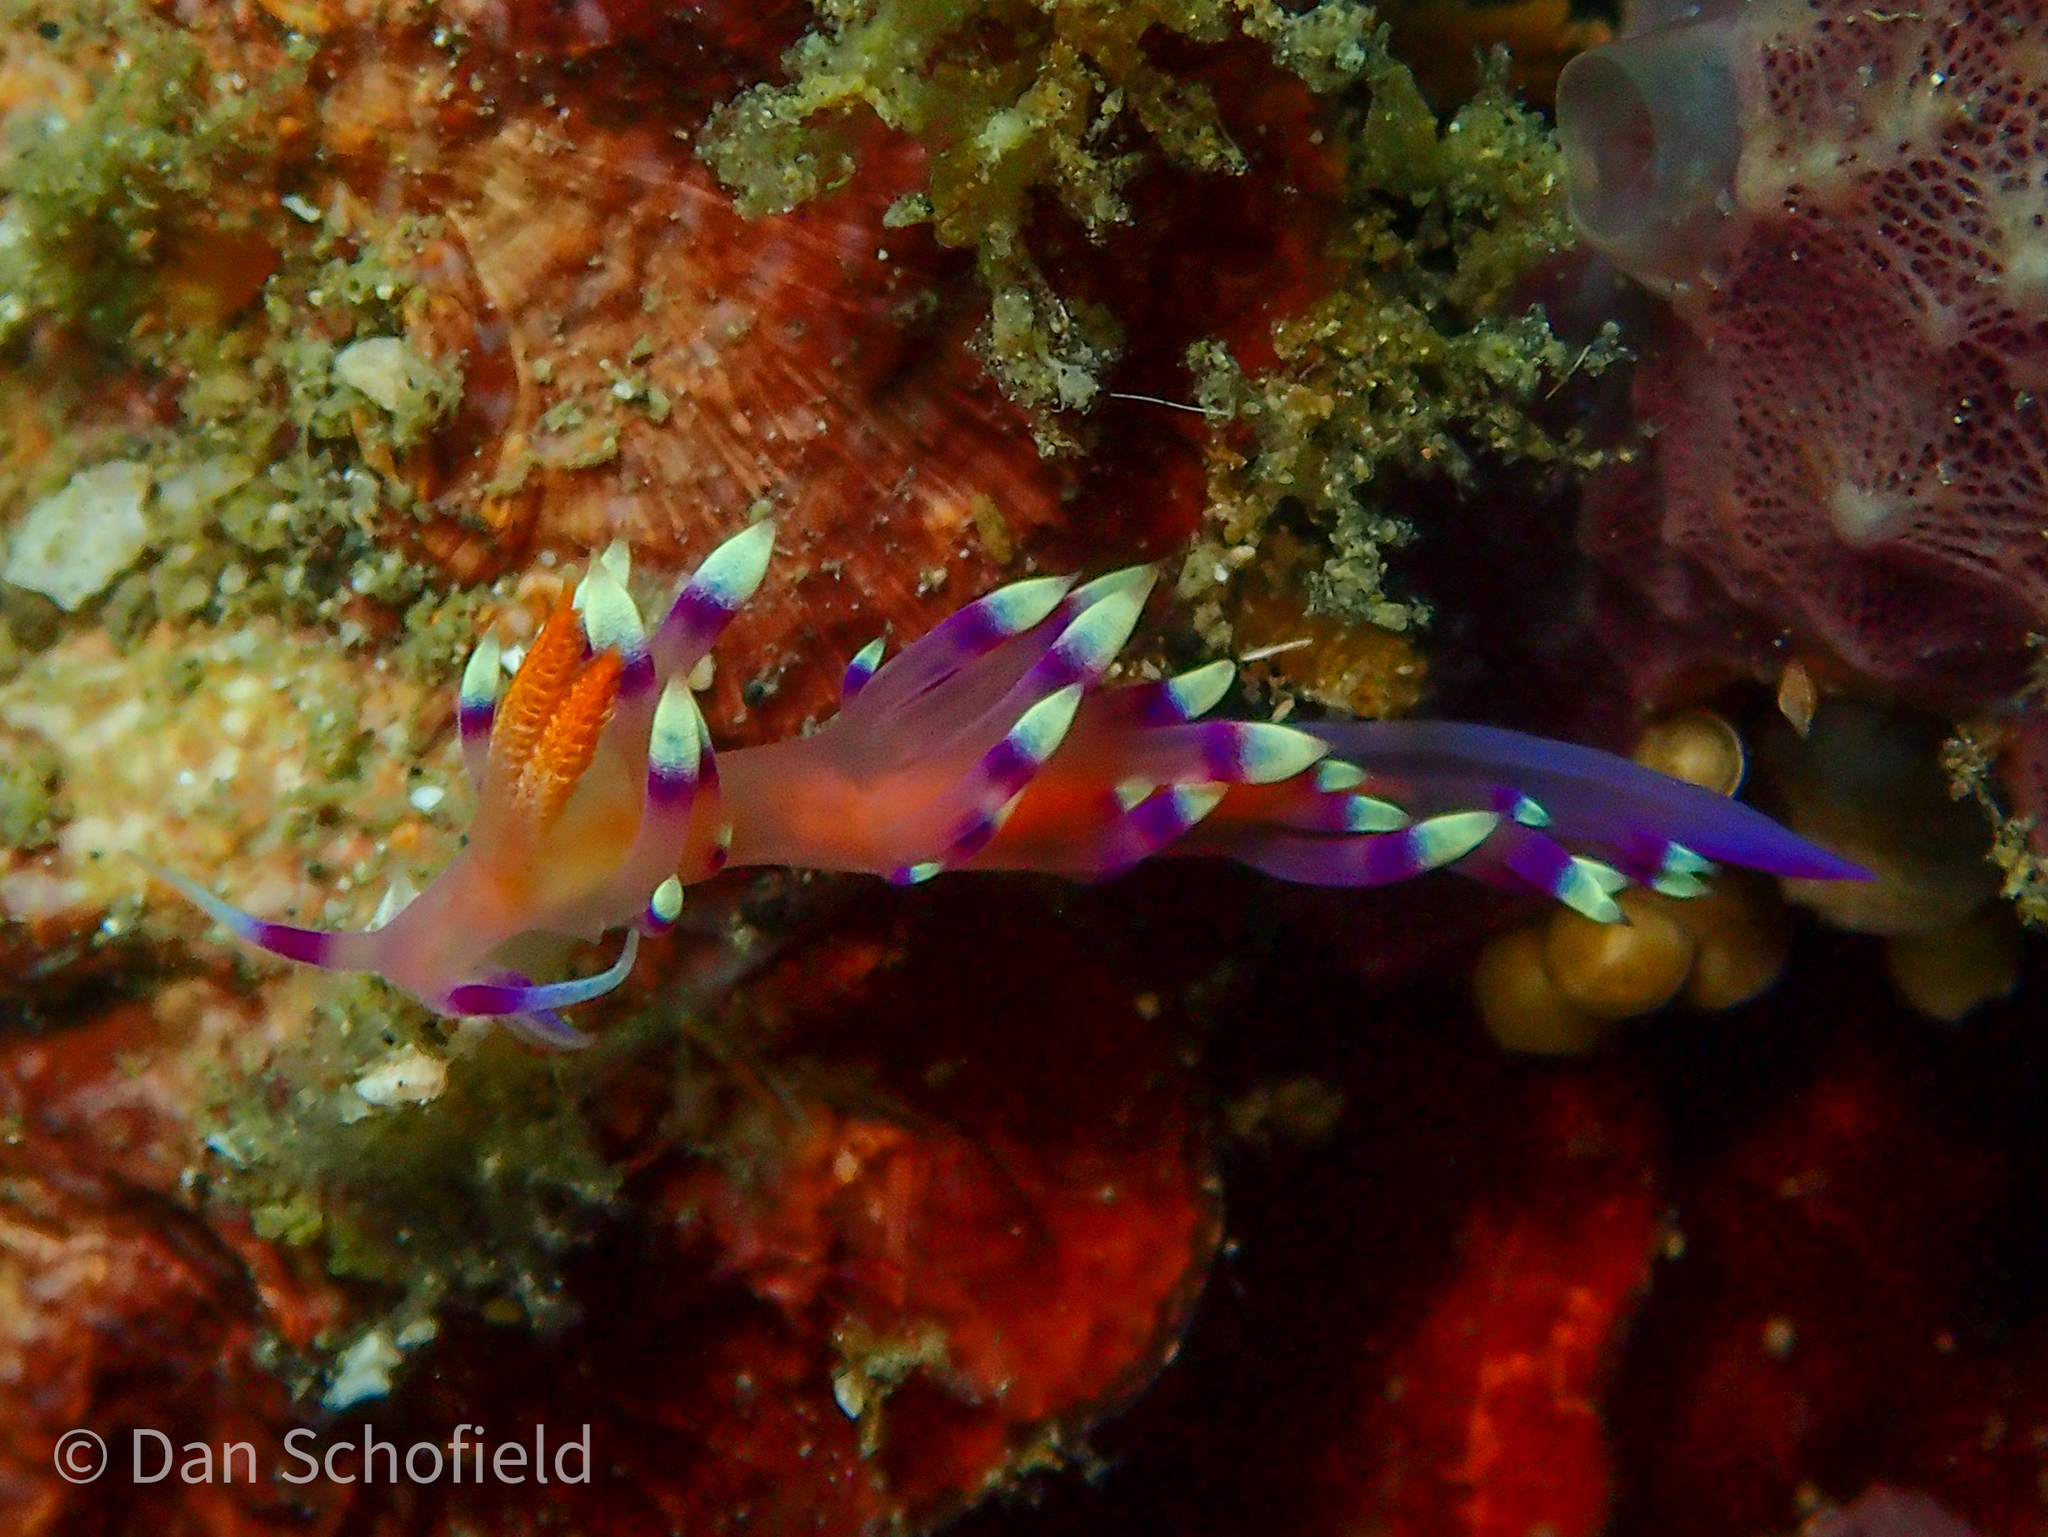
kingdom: Animalia
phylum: Mollusca
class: Gastropoda
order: Nudibranchia
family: Flabellinidae
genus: Coryphellina
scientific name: Coryphellina exoptata
